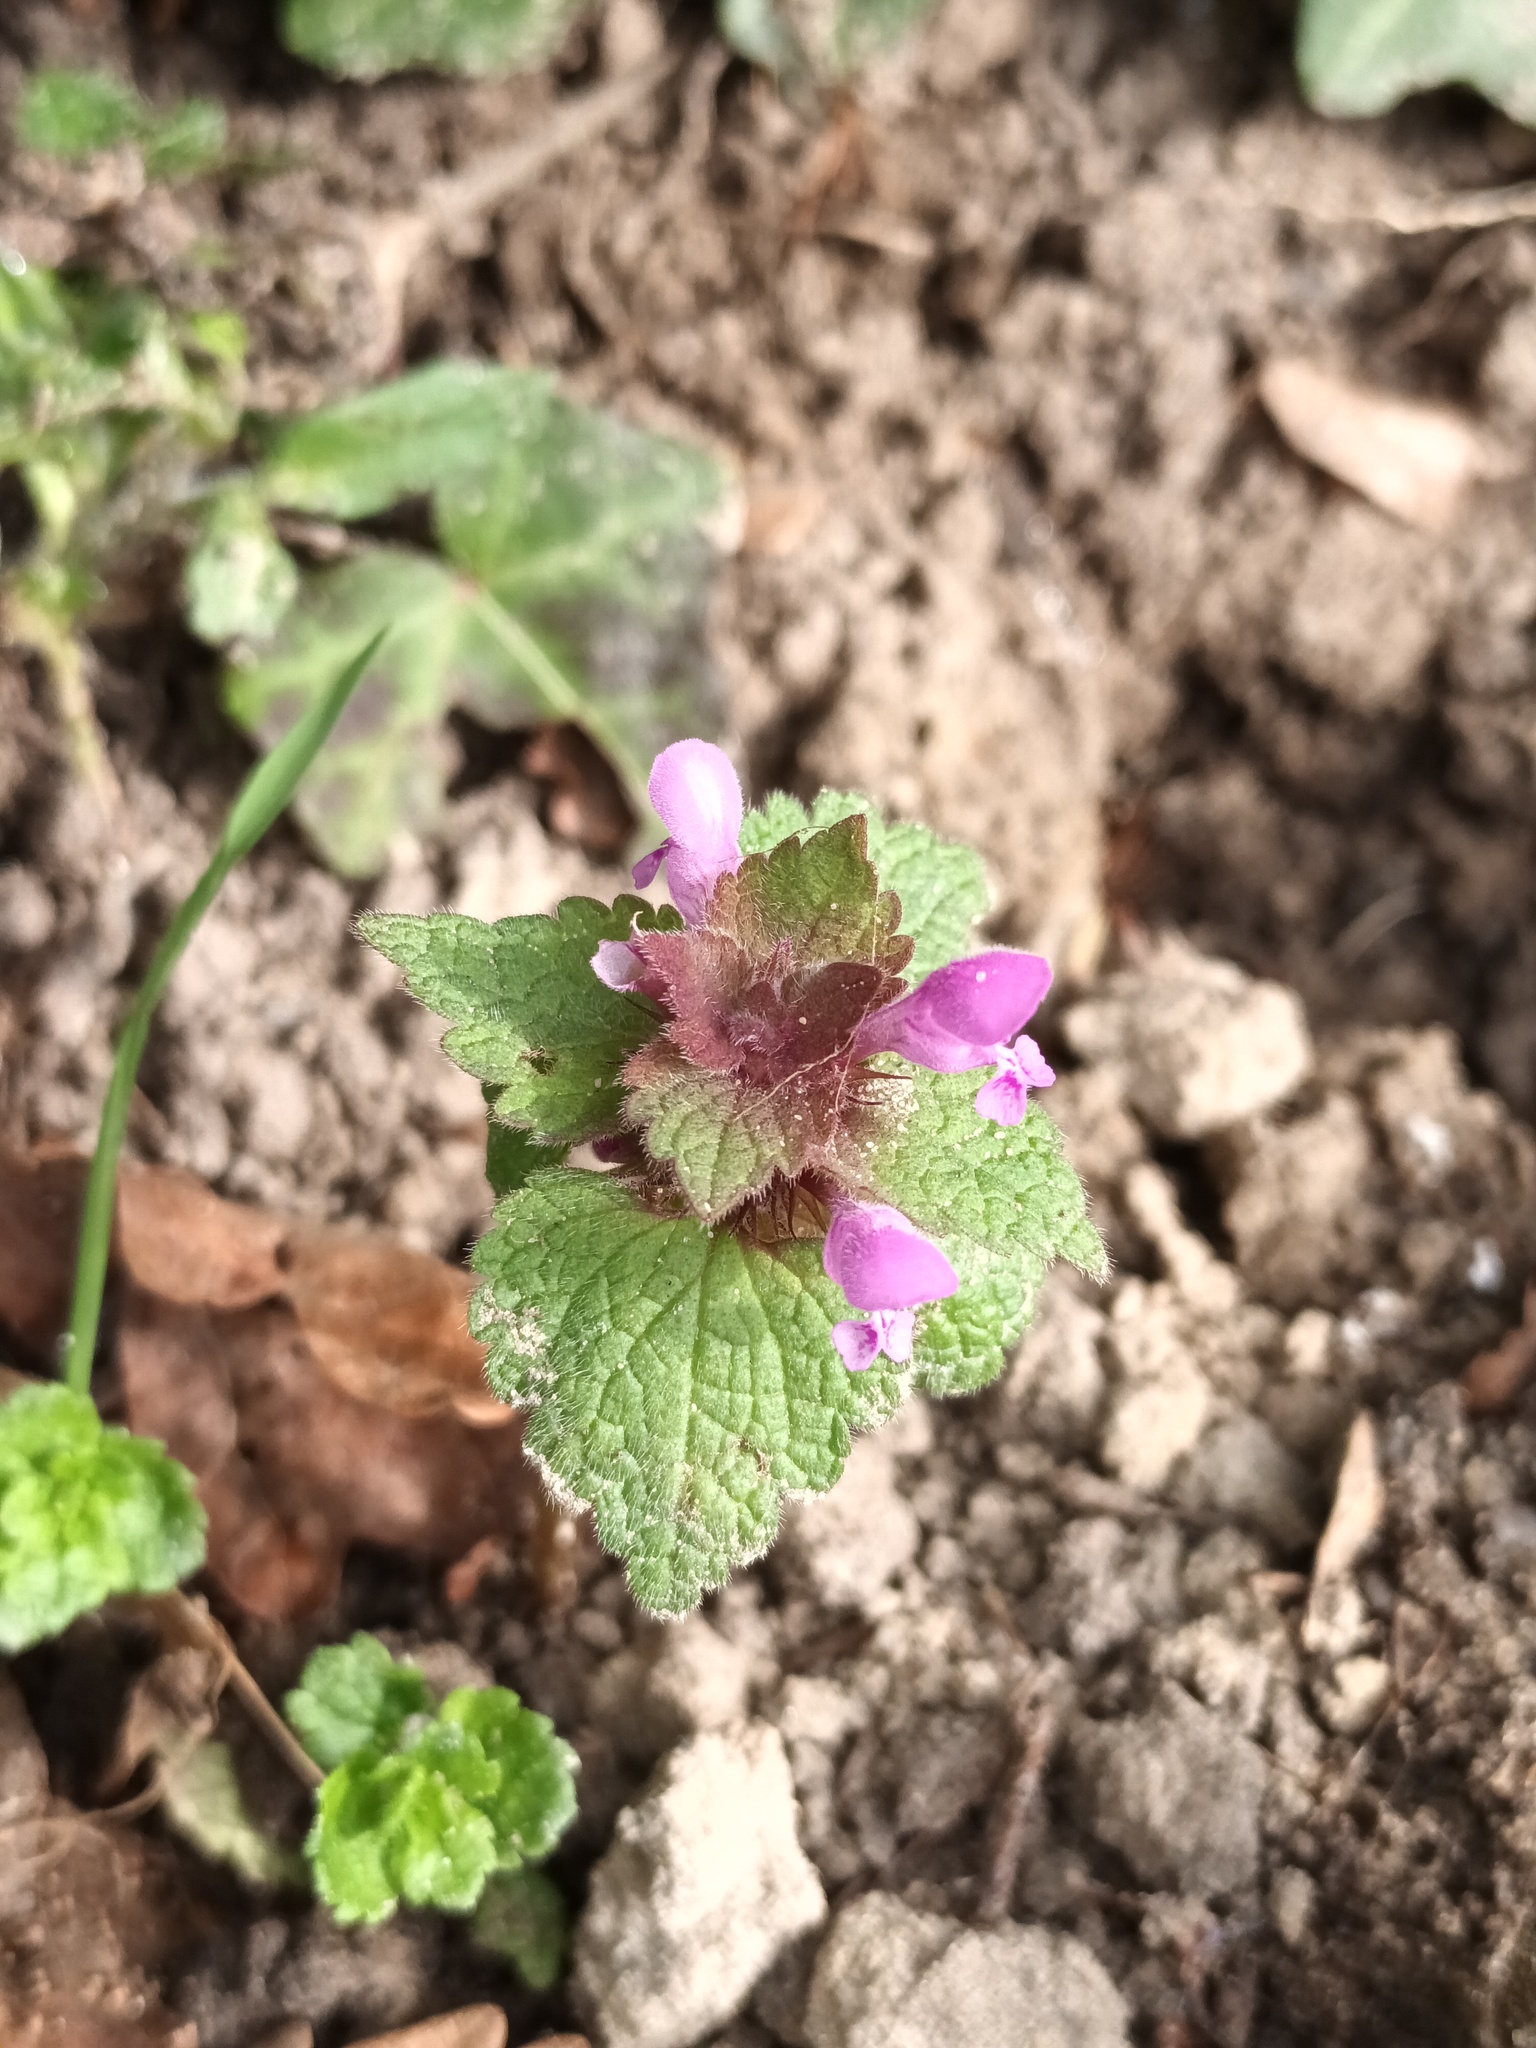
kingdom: Plantae
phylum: Tracheophyta
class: Magnoliopsida
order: Lamiales
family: Lamiaceae
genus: Lamium
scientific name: Lamium purpureum
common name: Red dead-nettle
